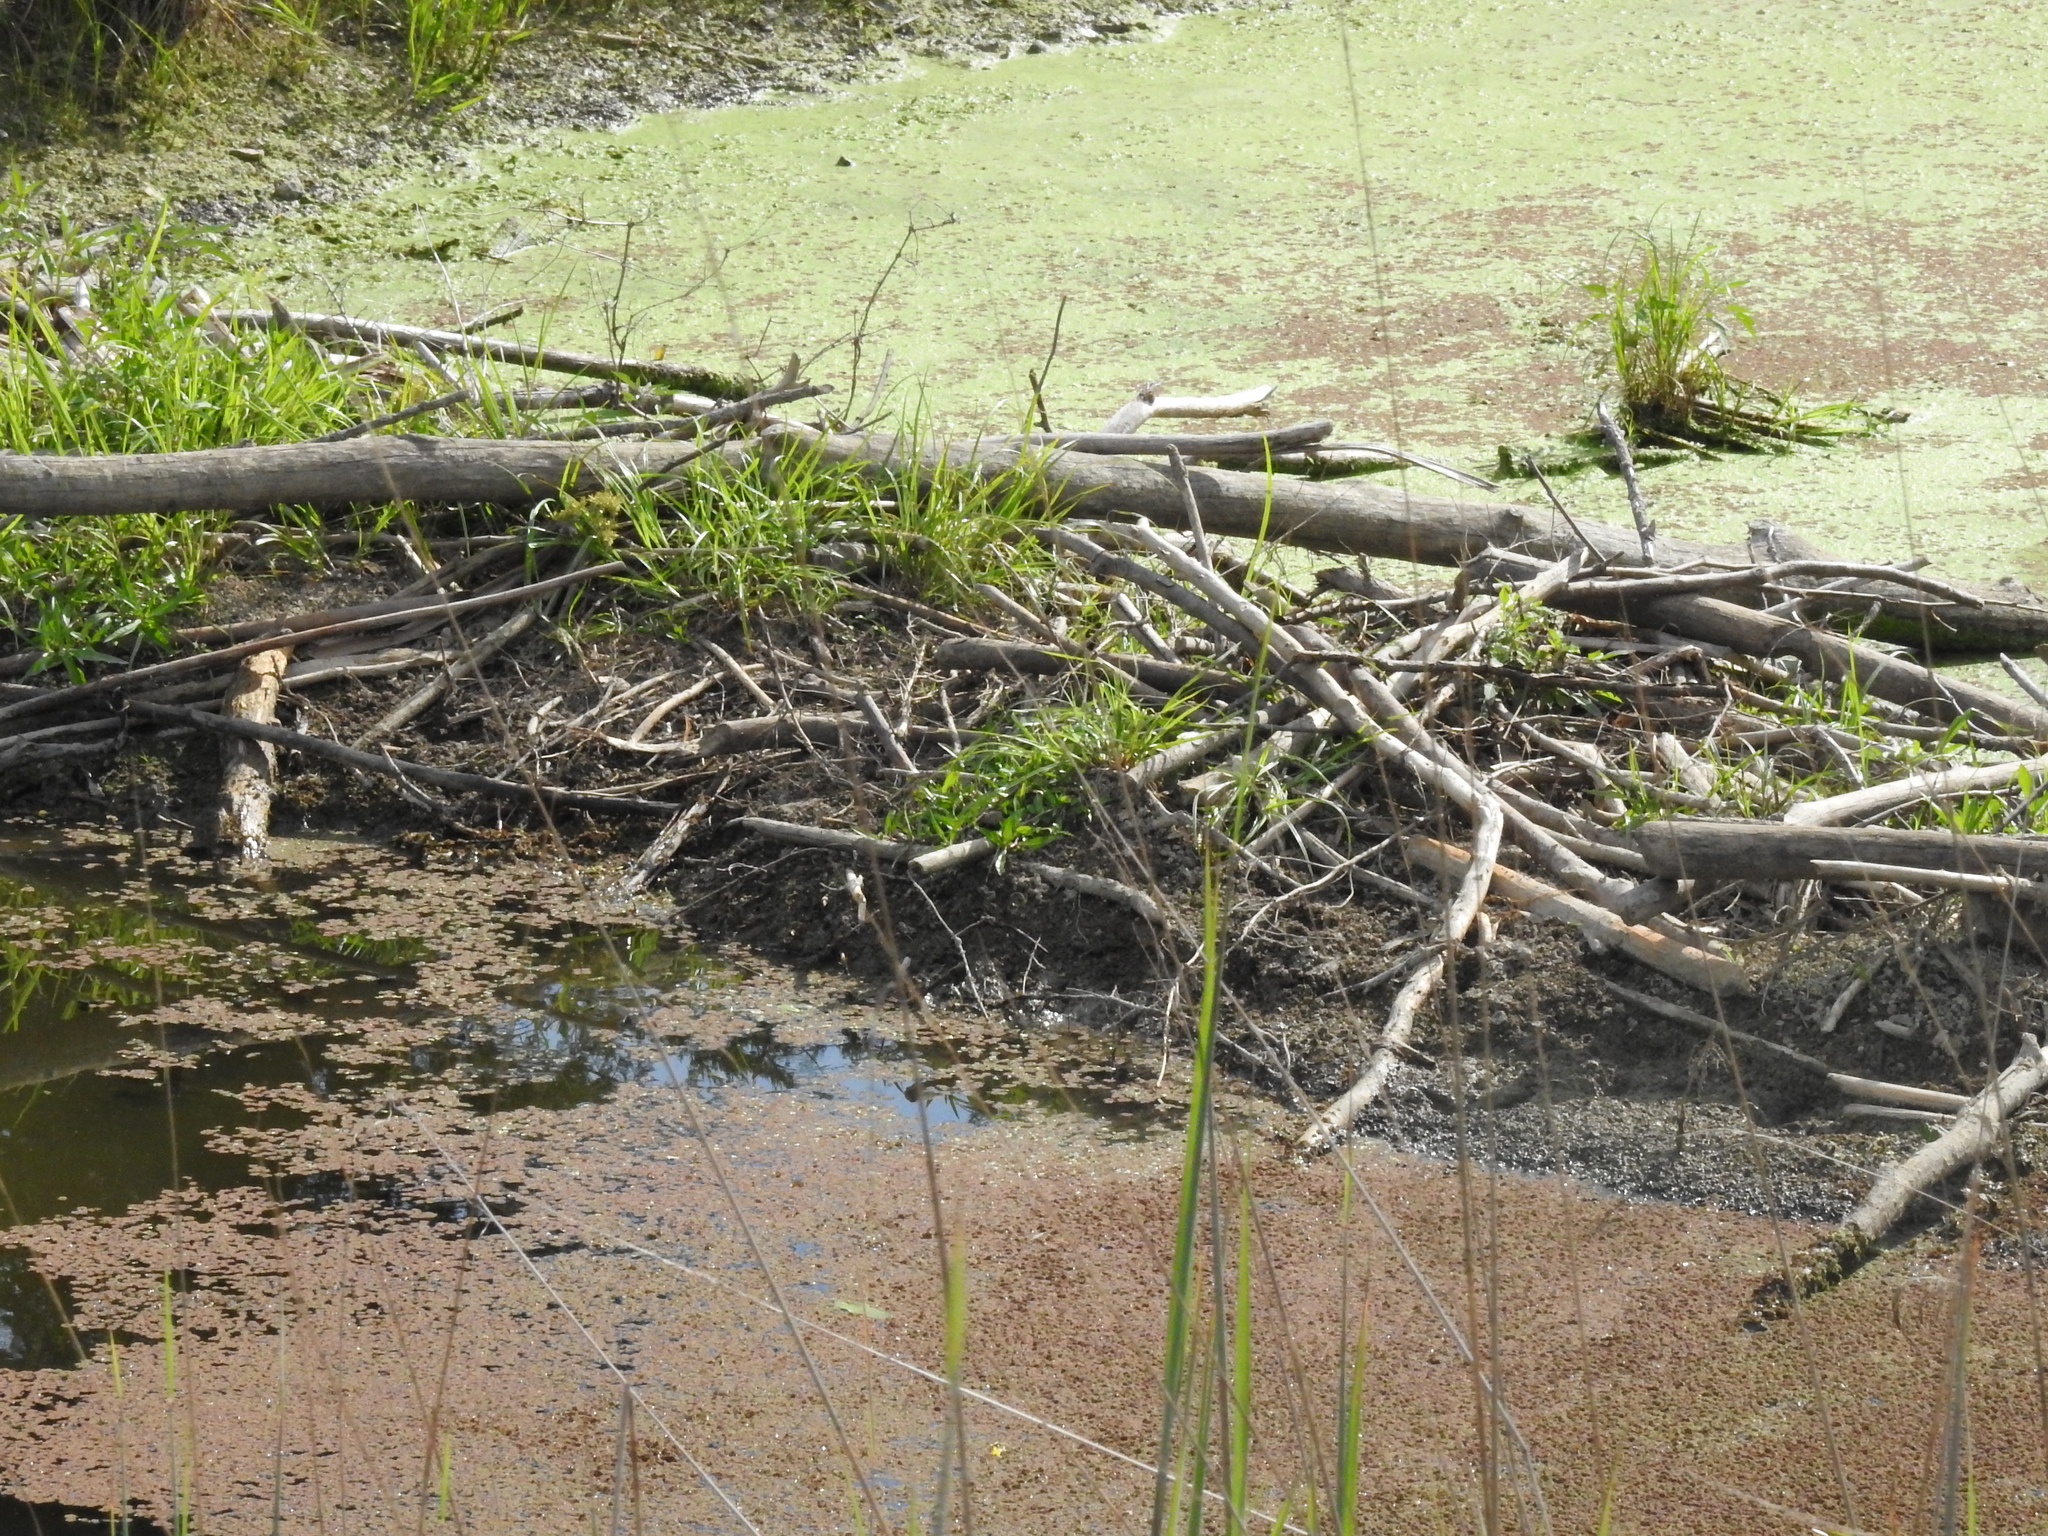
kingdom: Animalia
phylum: Chordata
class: Mammalia
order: Rodentia
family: Castoridae
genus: Castor
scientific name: Castor canadensis
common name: American beaver
